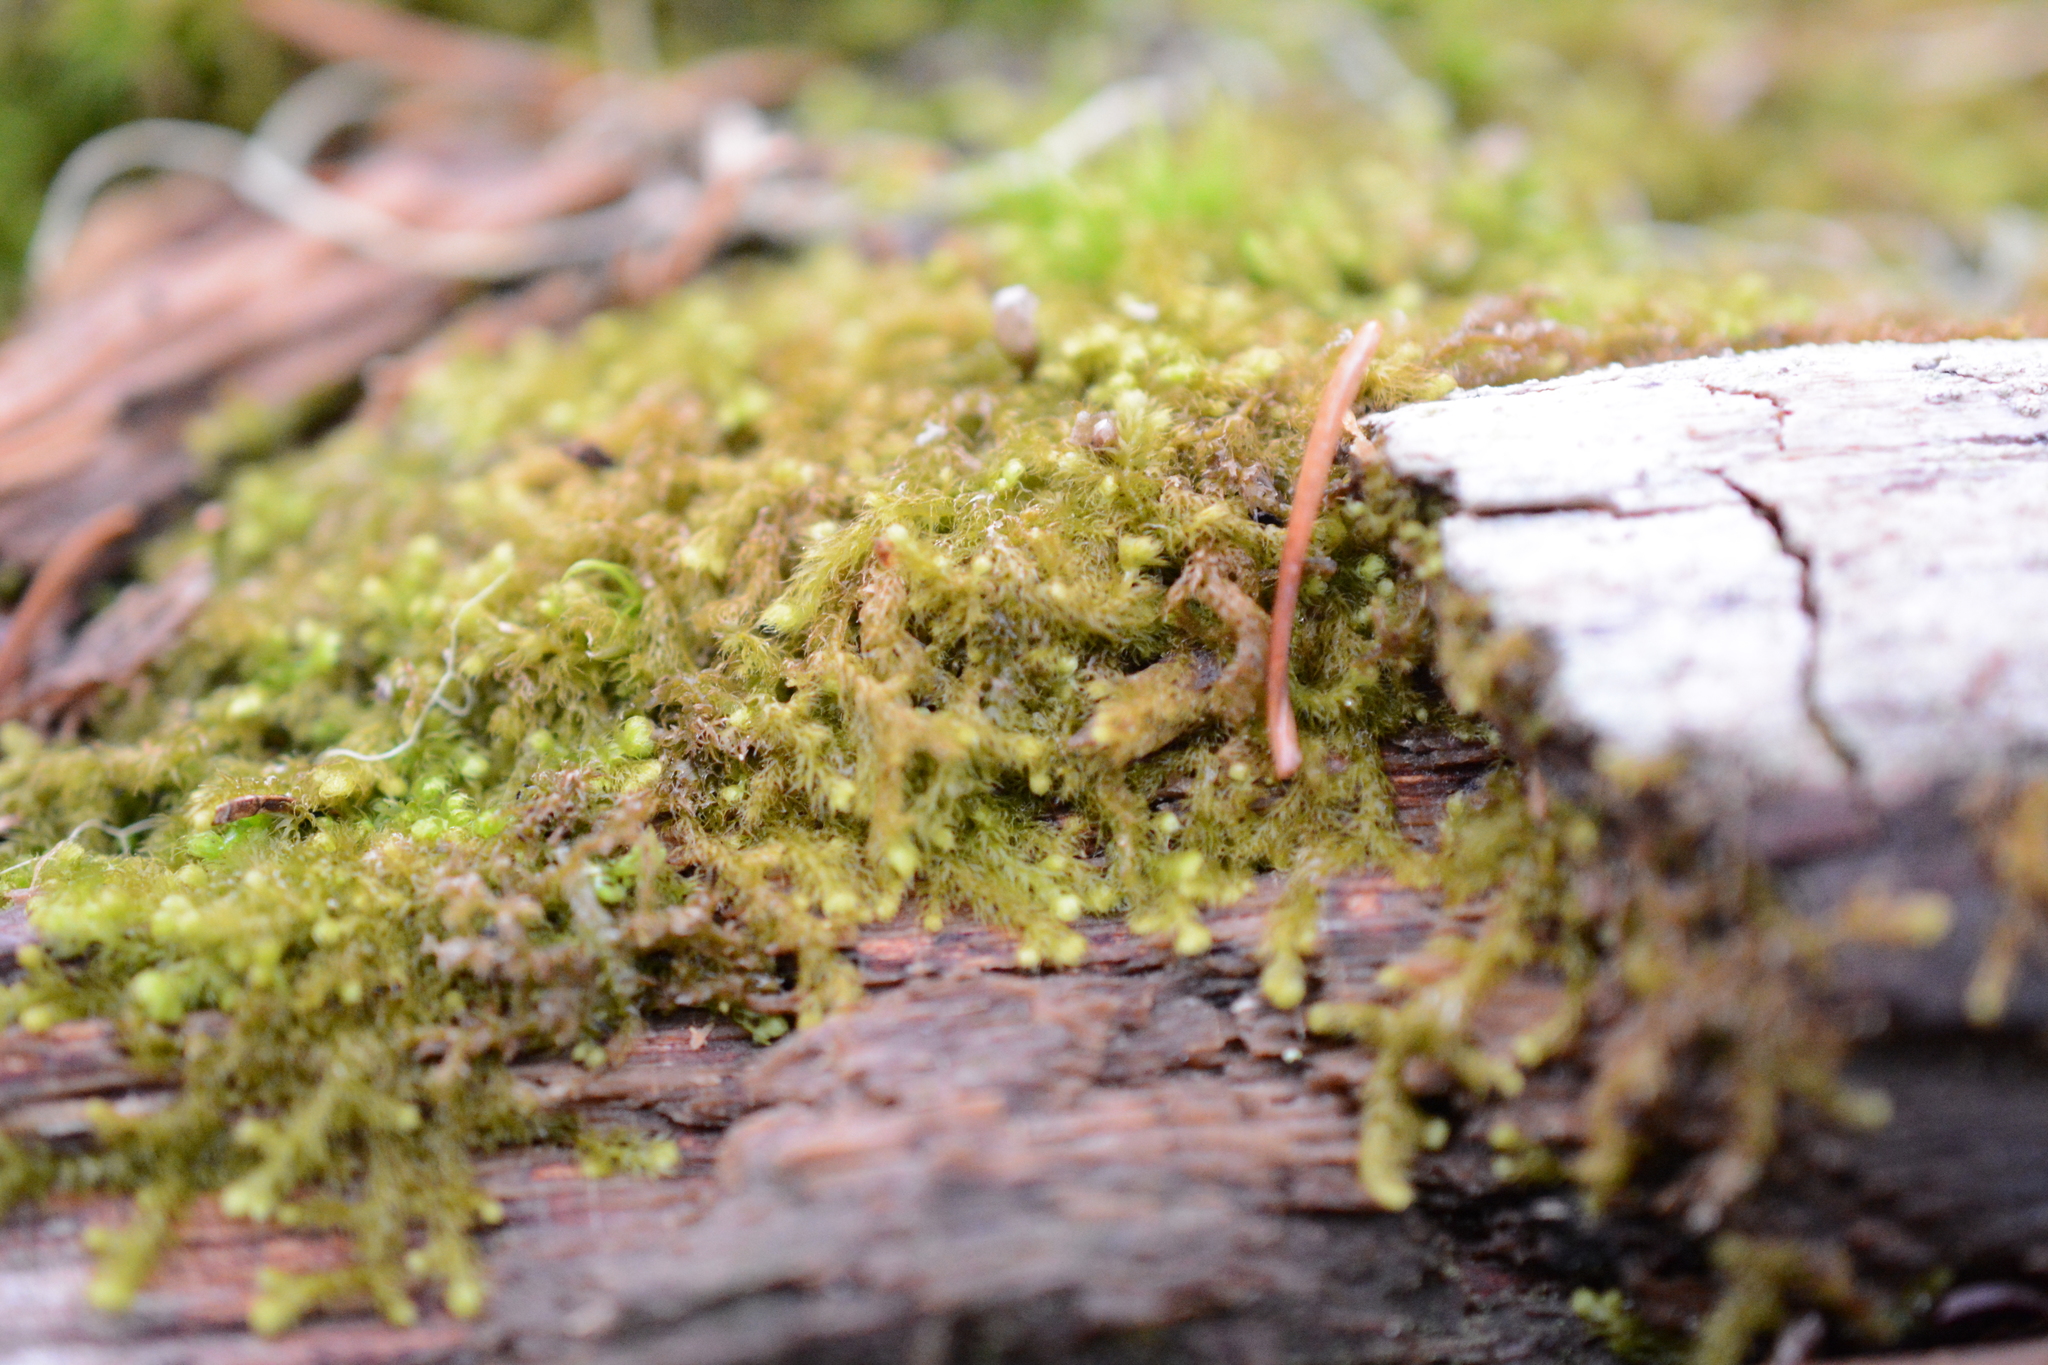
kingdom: Plantae
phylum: Marchantiophyta
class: Jungermanniopsida
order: Ptilidiales
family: Ptilidiaceae
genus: Ptilidium
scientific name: Ptilidium californicum
